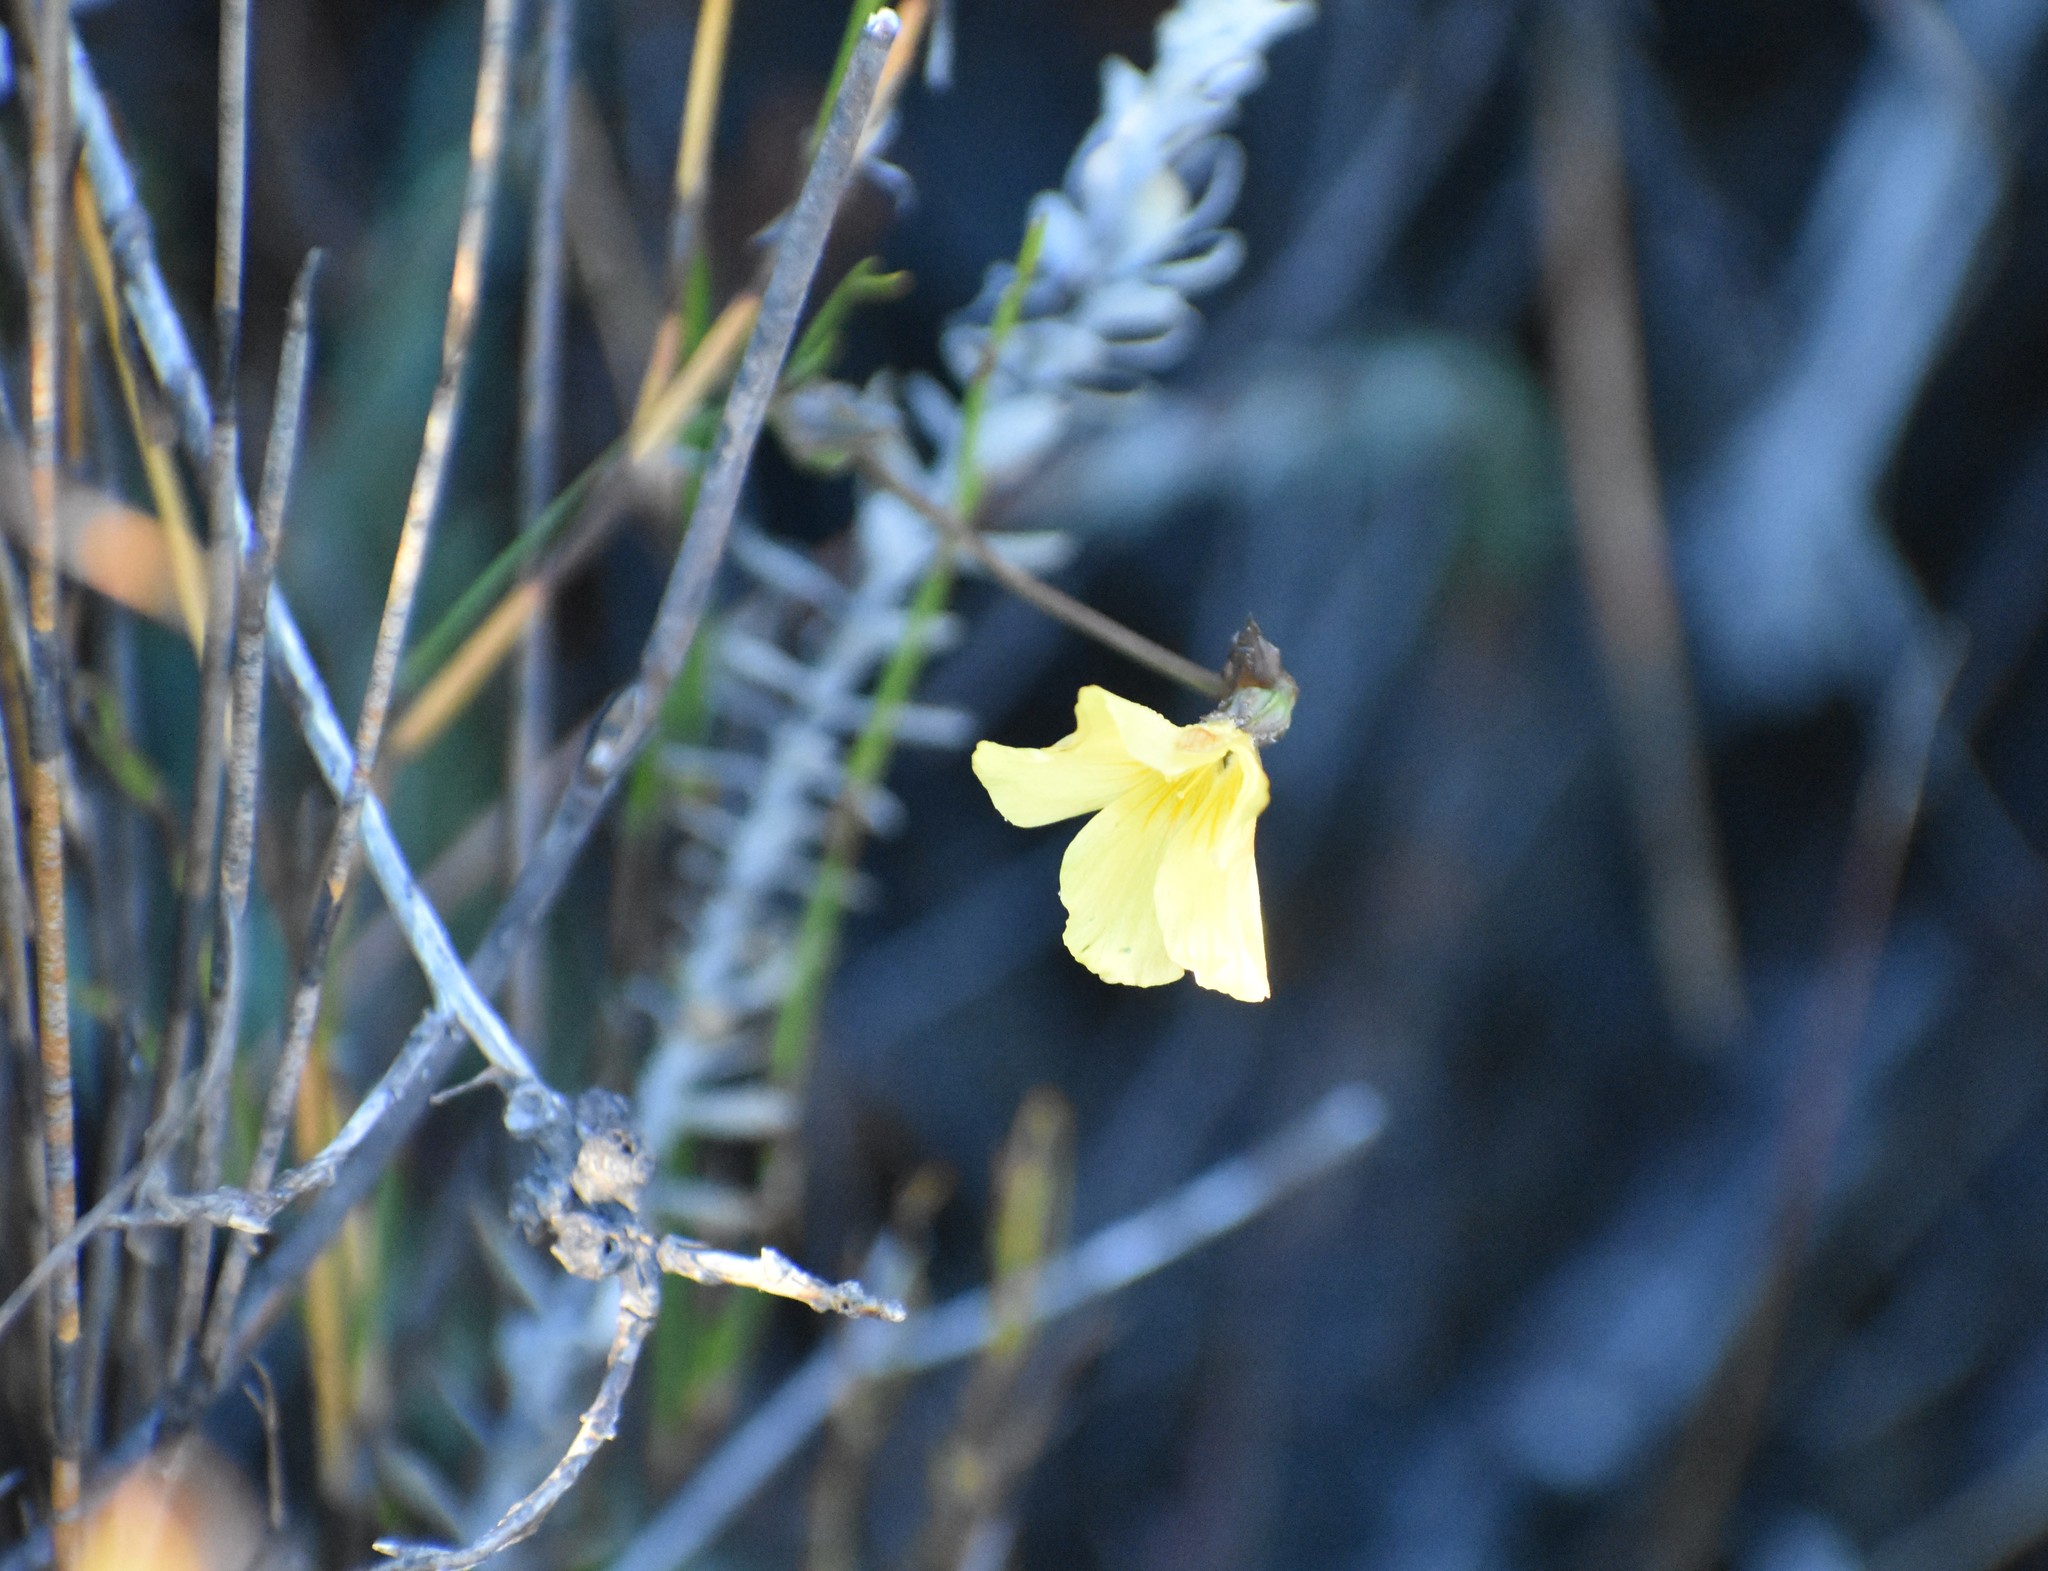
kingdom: Plantae
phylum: Tracheophyta
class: Magnoliopsida
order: Malpighiales
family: Linaceae
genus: Linum
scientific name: Linum africanum
